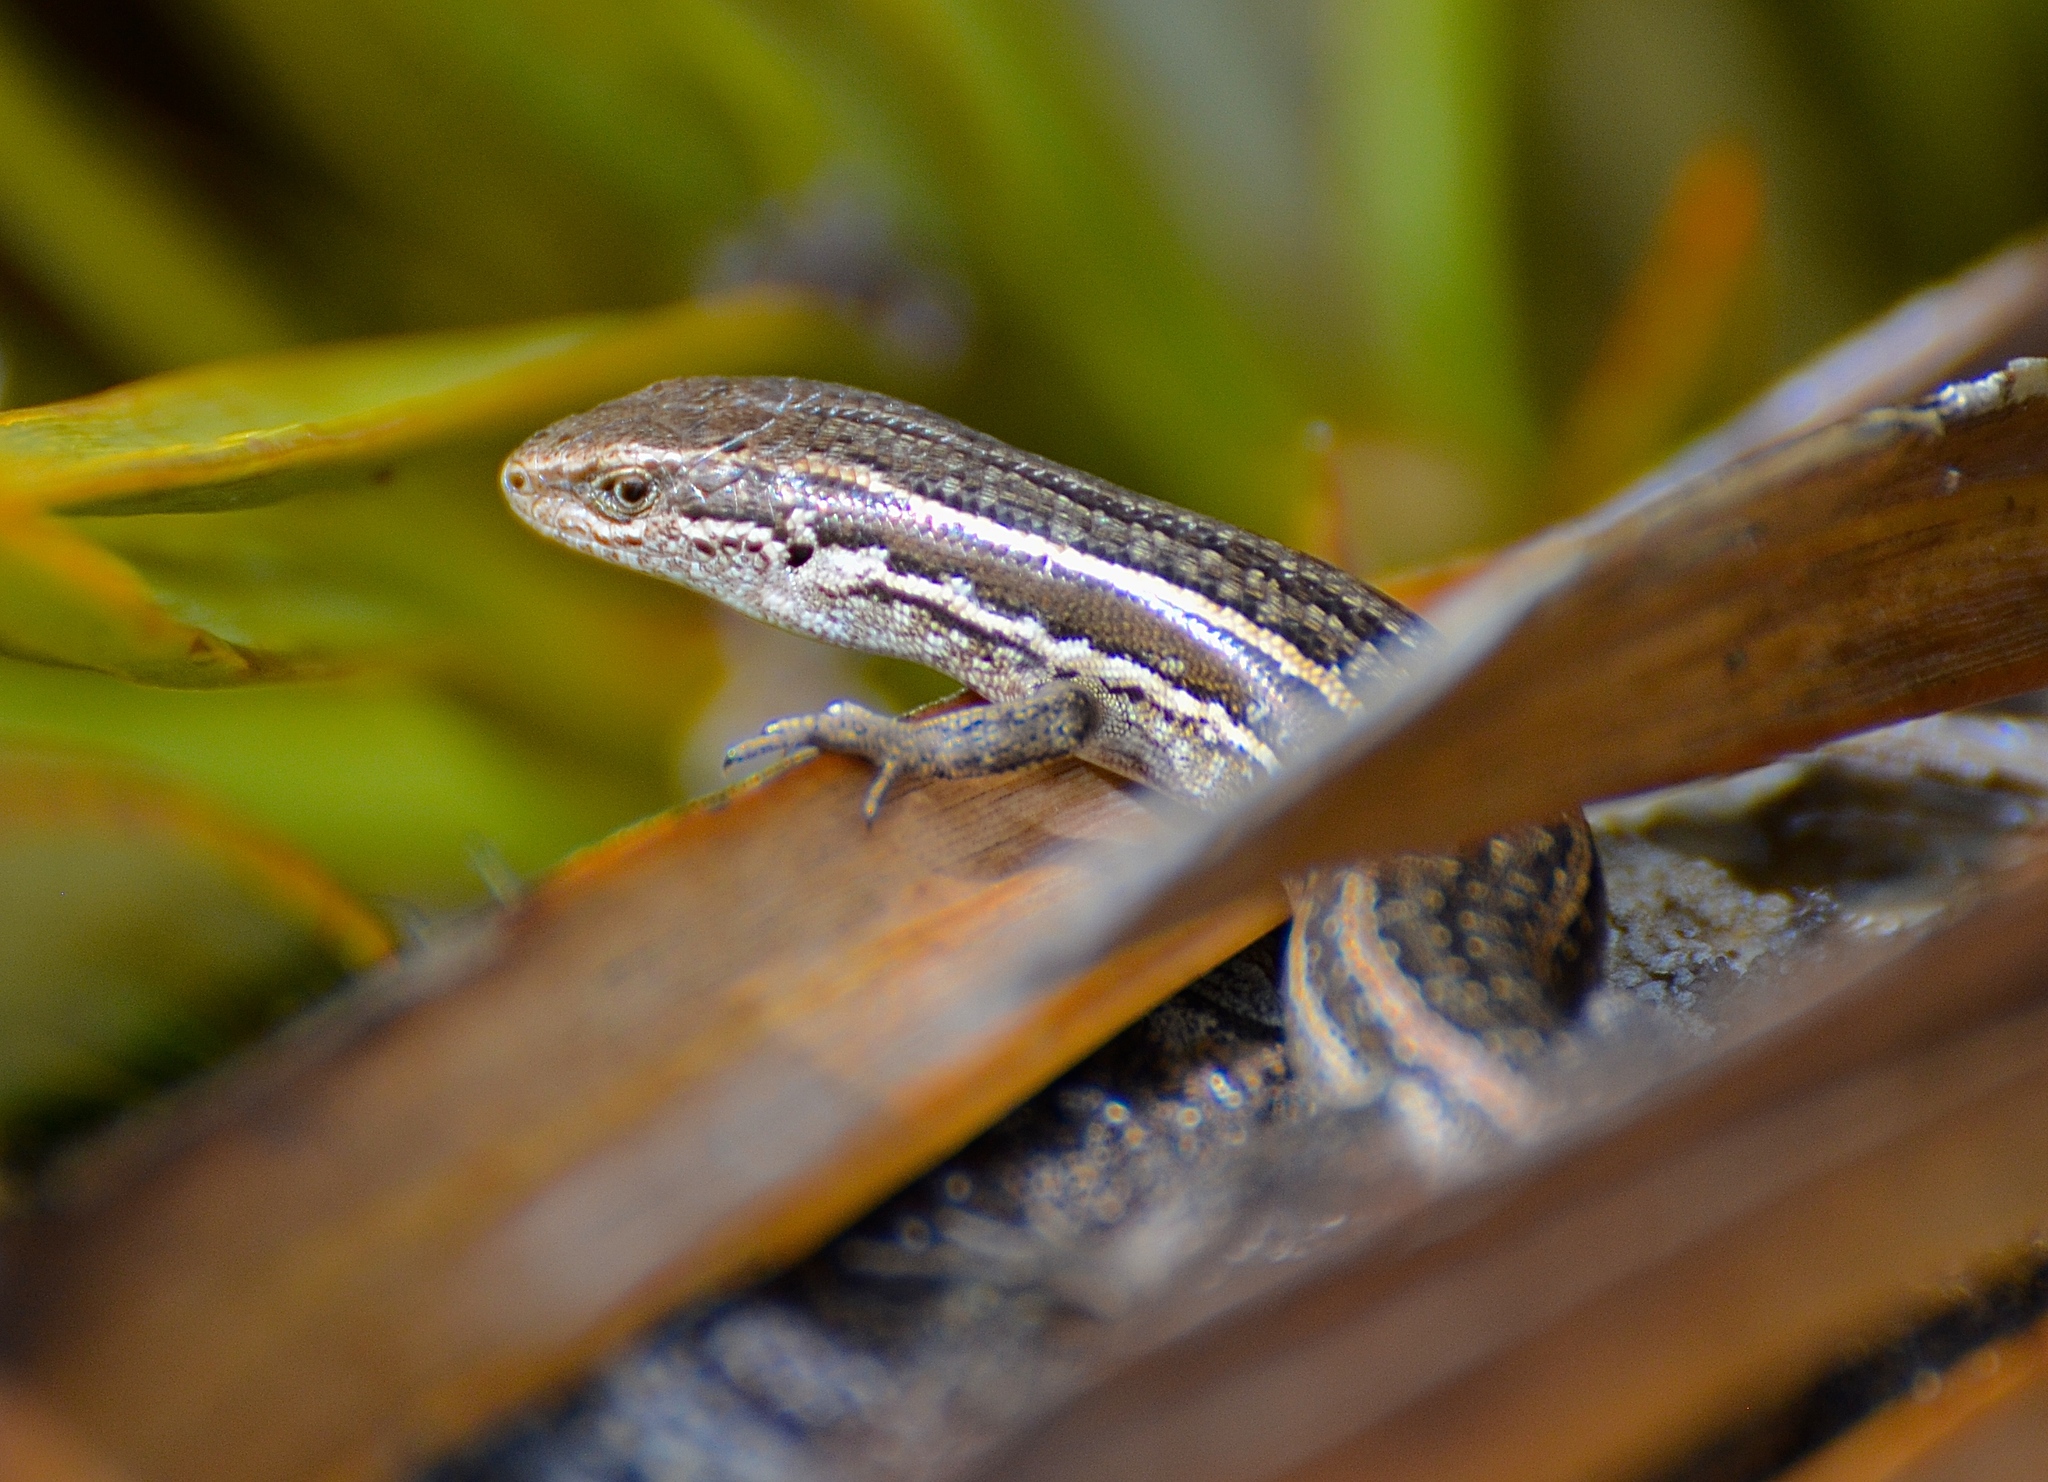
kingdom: Animalia
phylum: Chordata
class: Squamata
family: Scincidae
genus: Oligosoma
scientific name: Oligosoma maccanni
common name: Mccann’s skink
